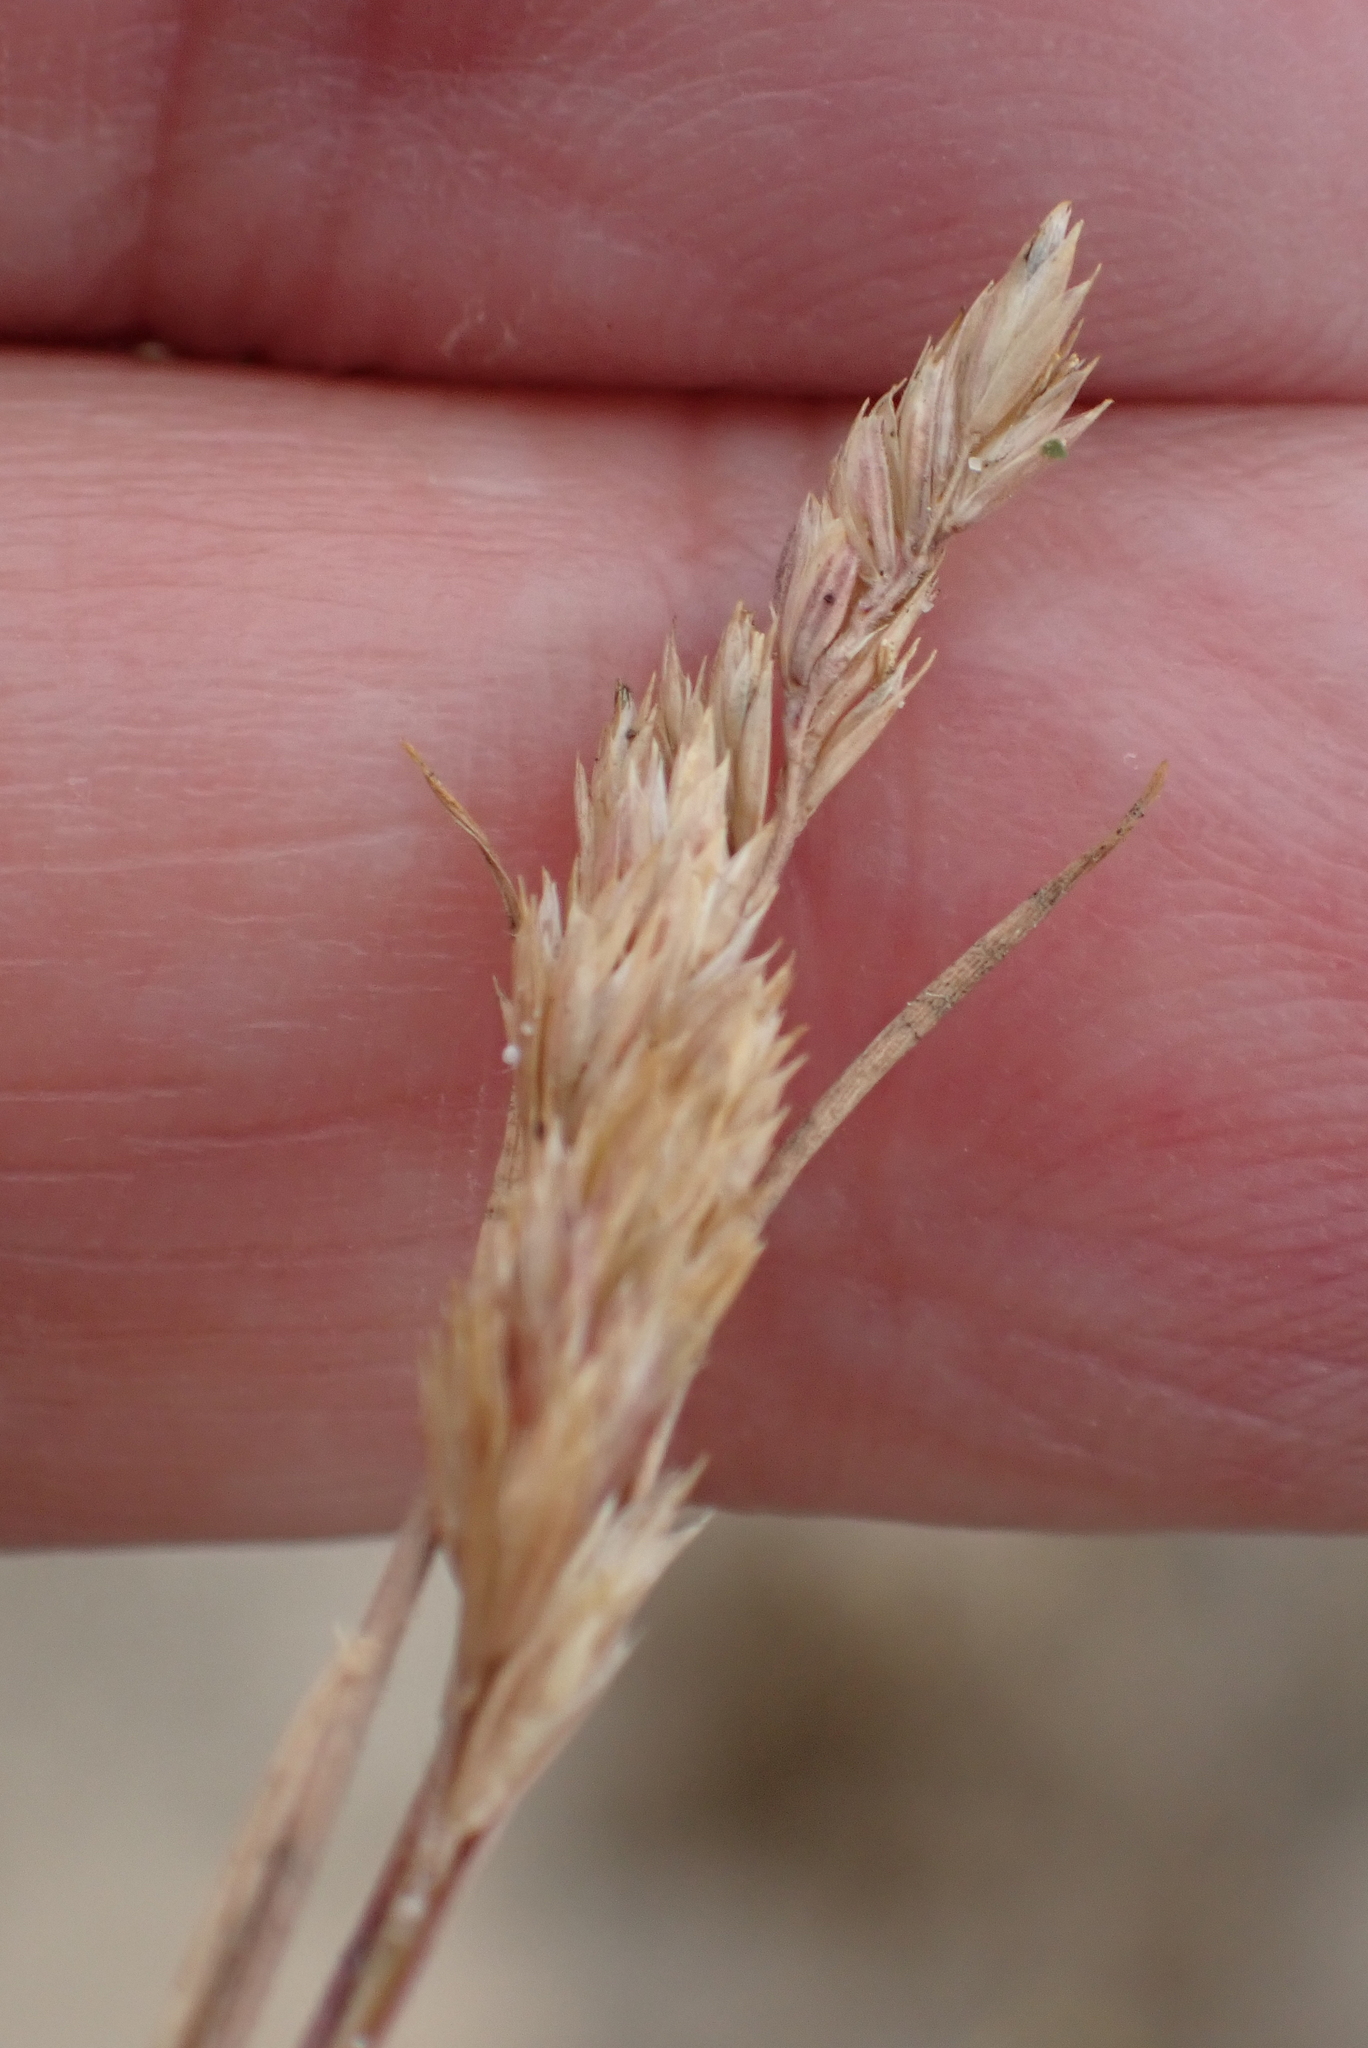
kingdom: Plantae
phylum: Tracheophyta
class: Liliopsida
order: Poales
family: Poaceae
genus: Dactylis
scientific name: Dactylis glomerata
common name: Orchardgrass
